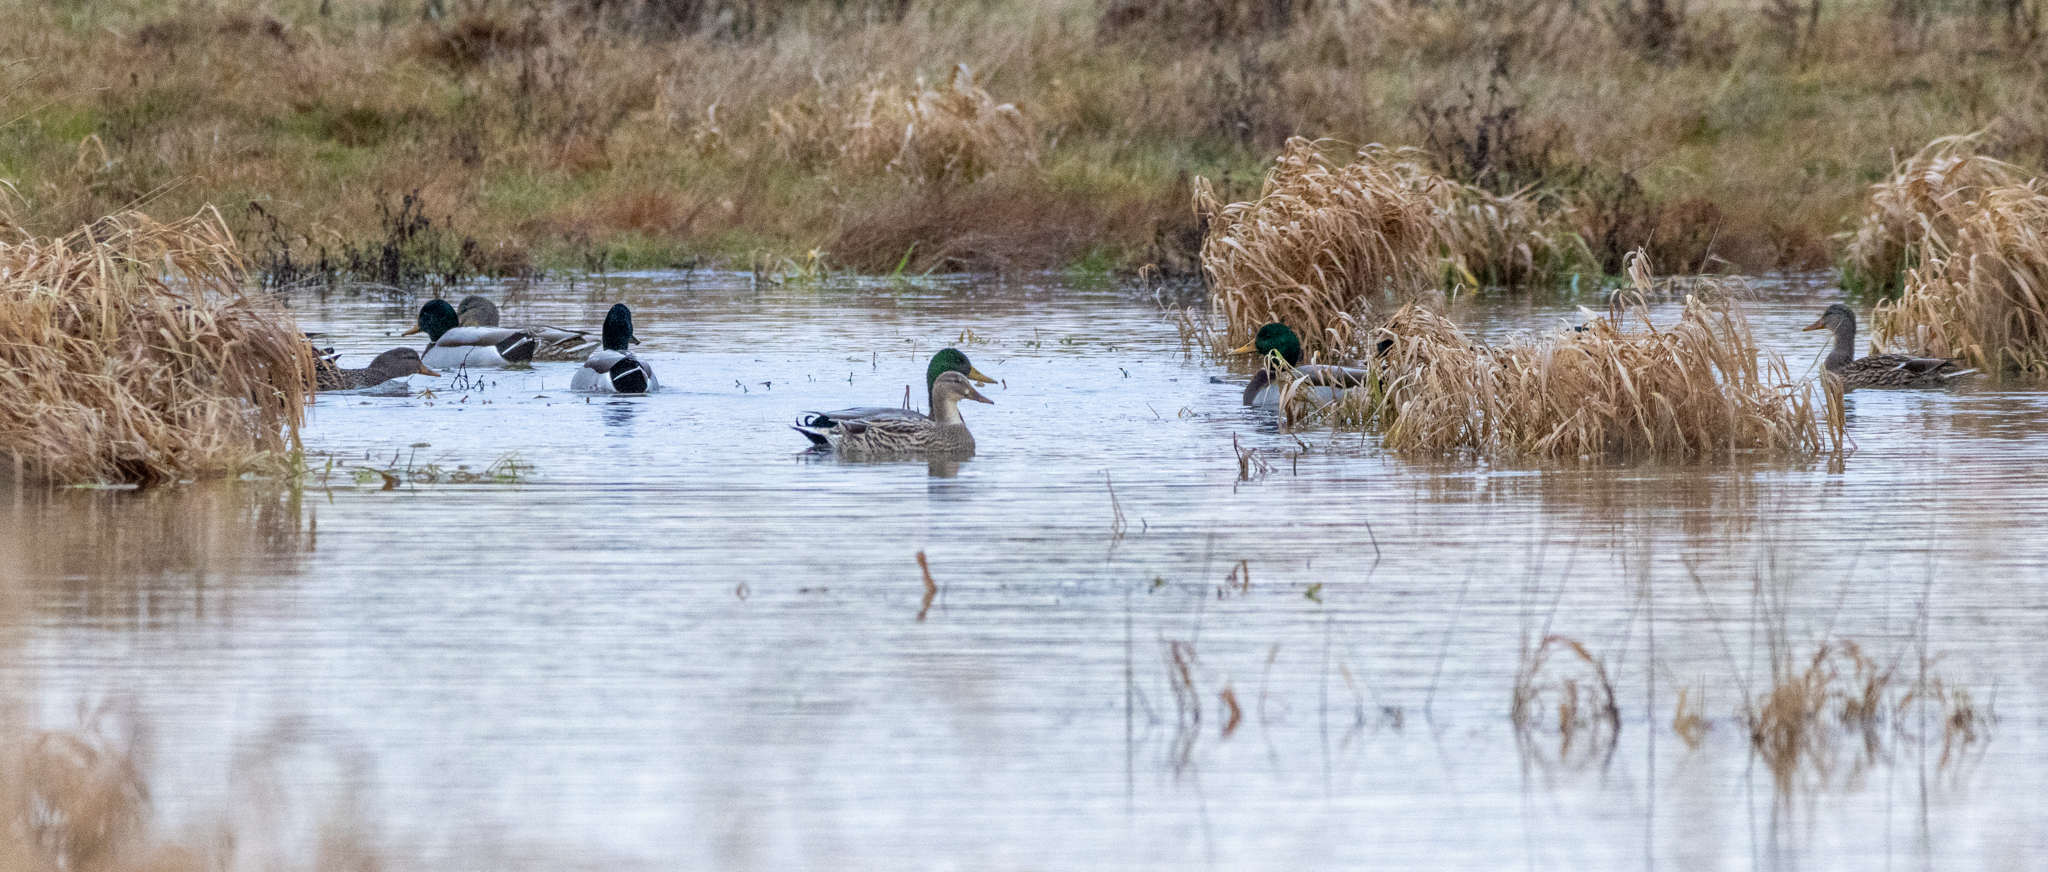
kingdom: Animalia
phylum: Chordata
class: Aves
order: Anseriformes
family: Anatidae
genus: Anas
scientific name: Anas platyrhynchos
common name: Mallard
